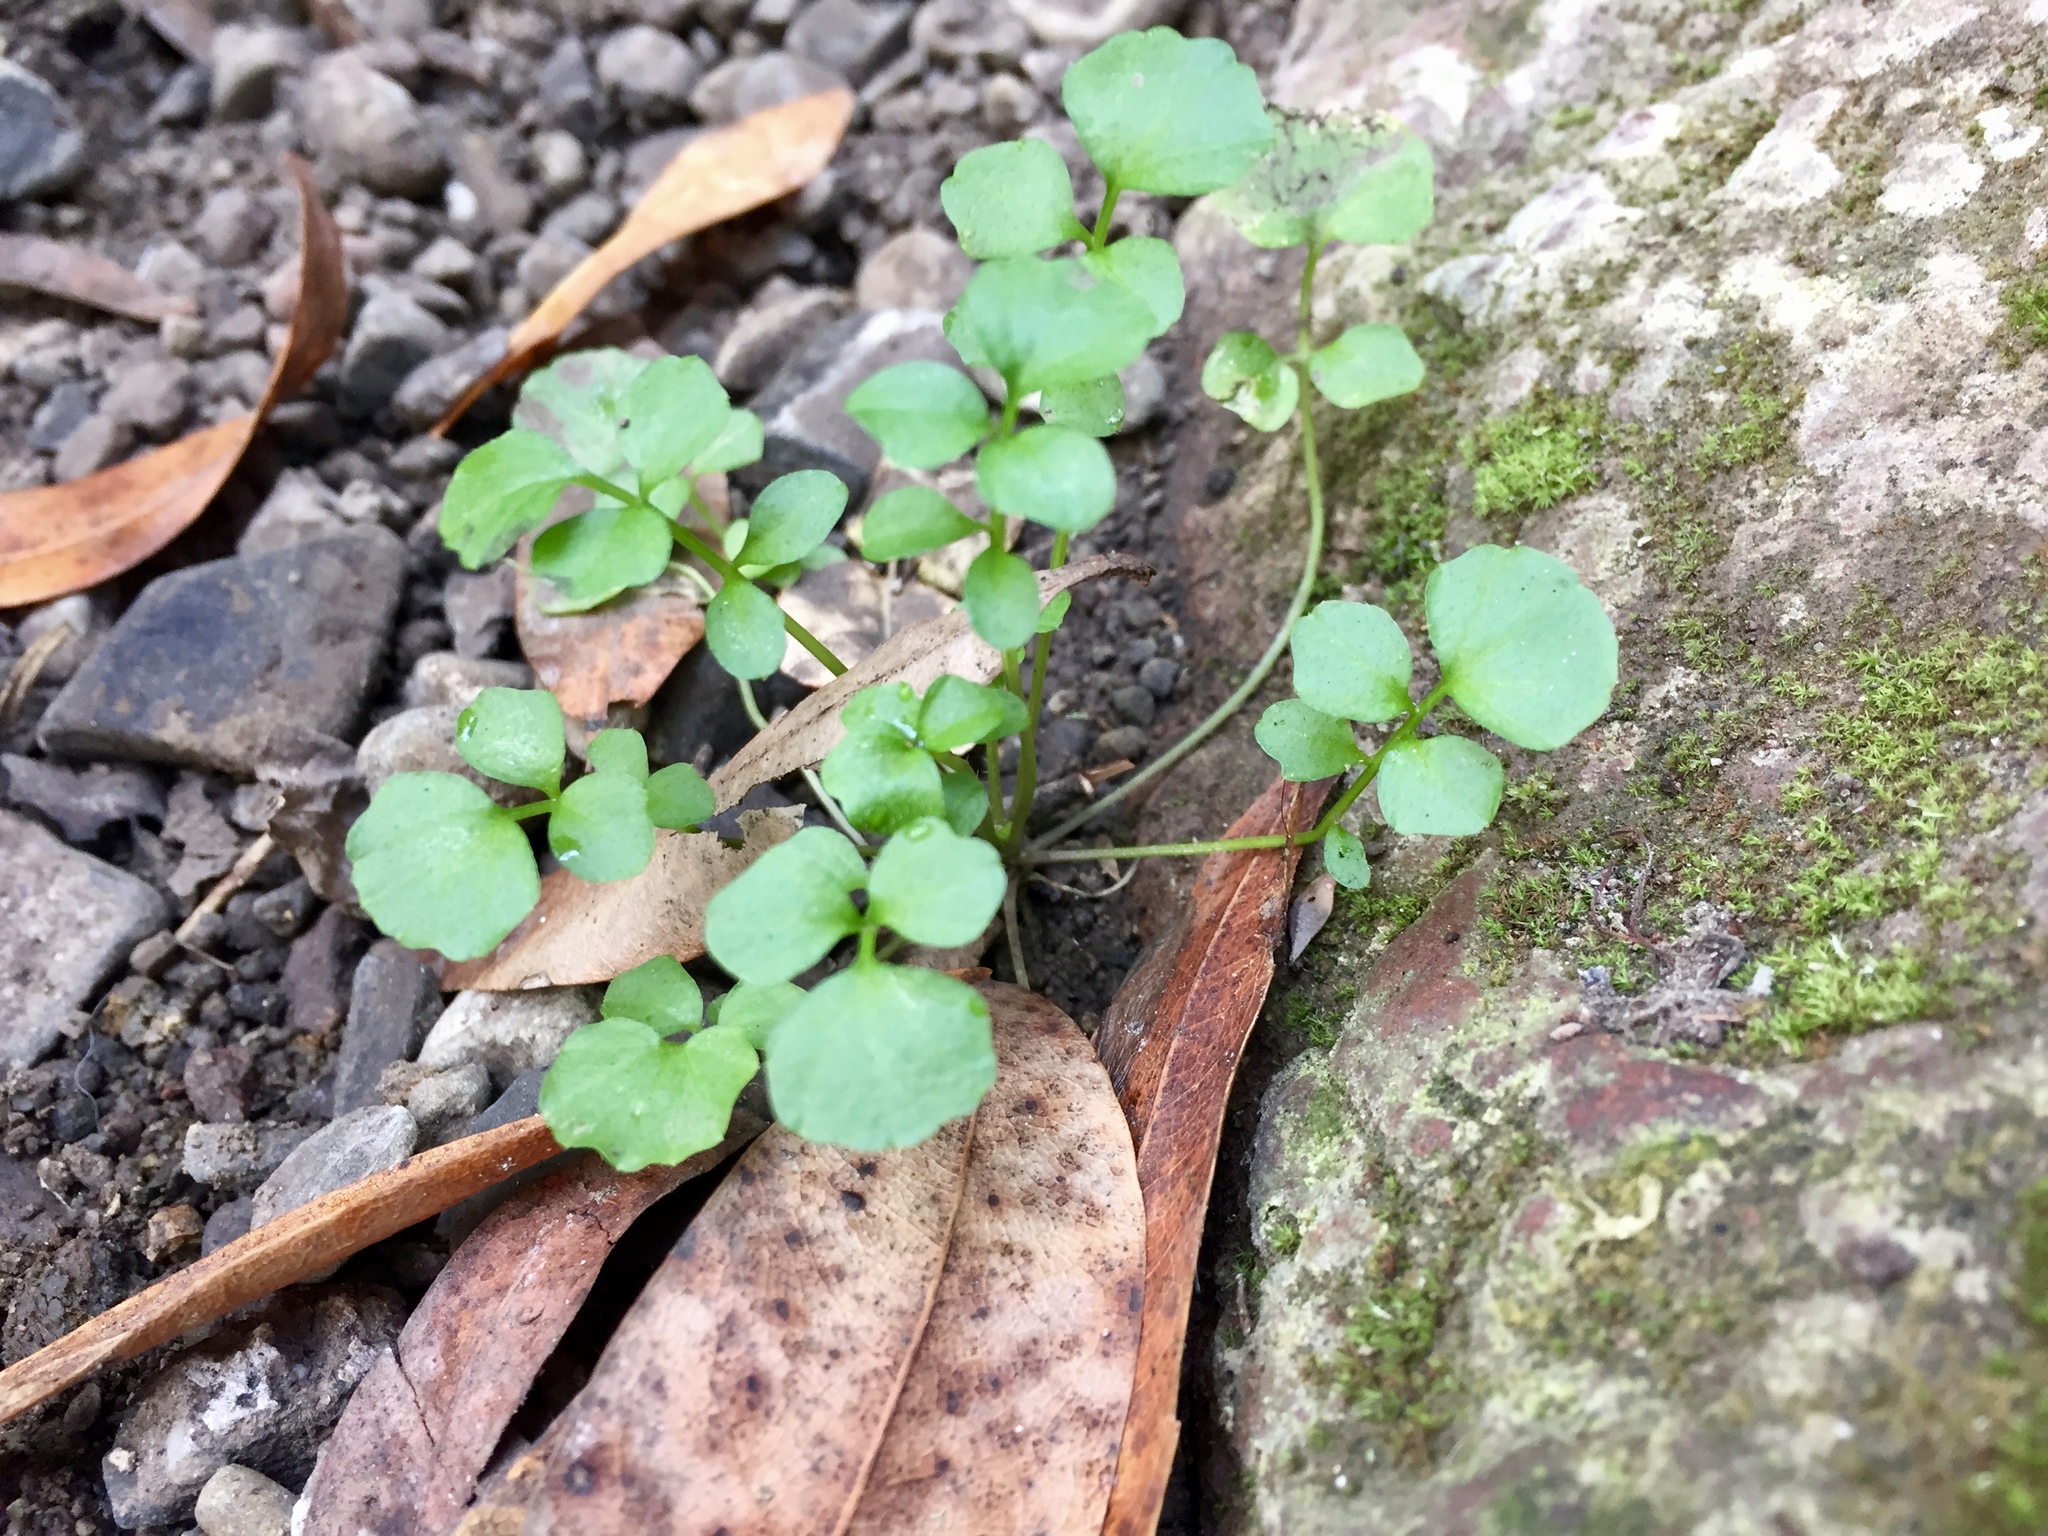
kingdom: Plantae
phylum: Tracheophyta
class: Magnoliopsida
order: Brassicales
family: Brassicaceae
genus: Nasturtium
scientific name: Nasturtium officinale
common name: Watercress
